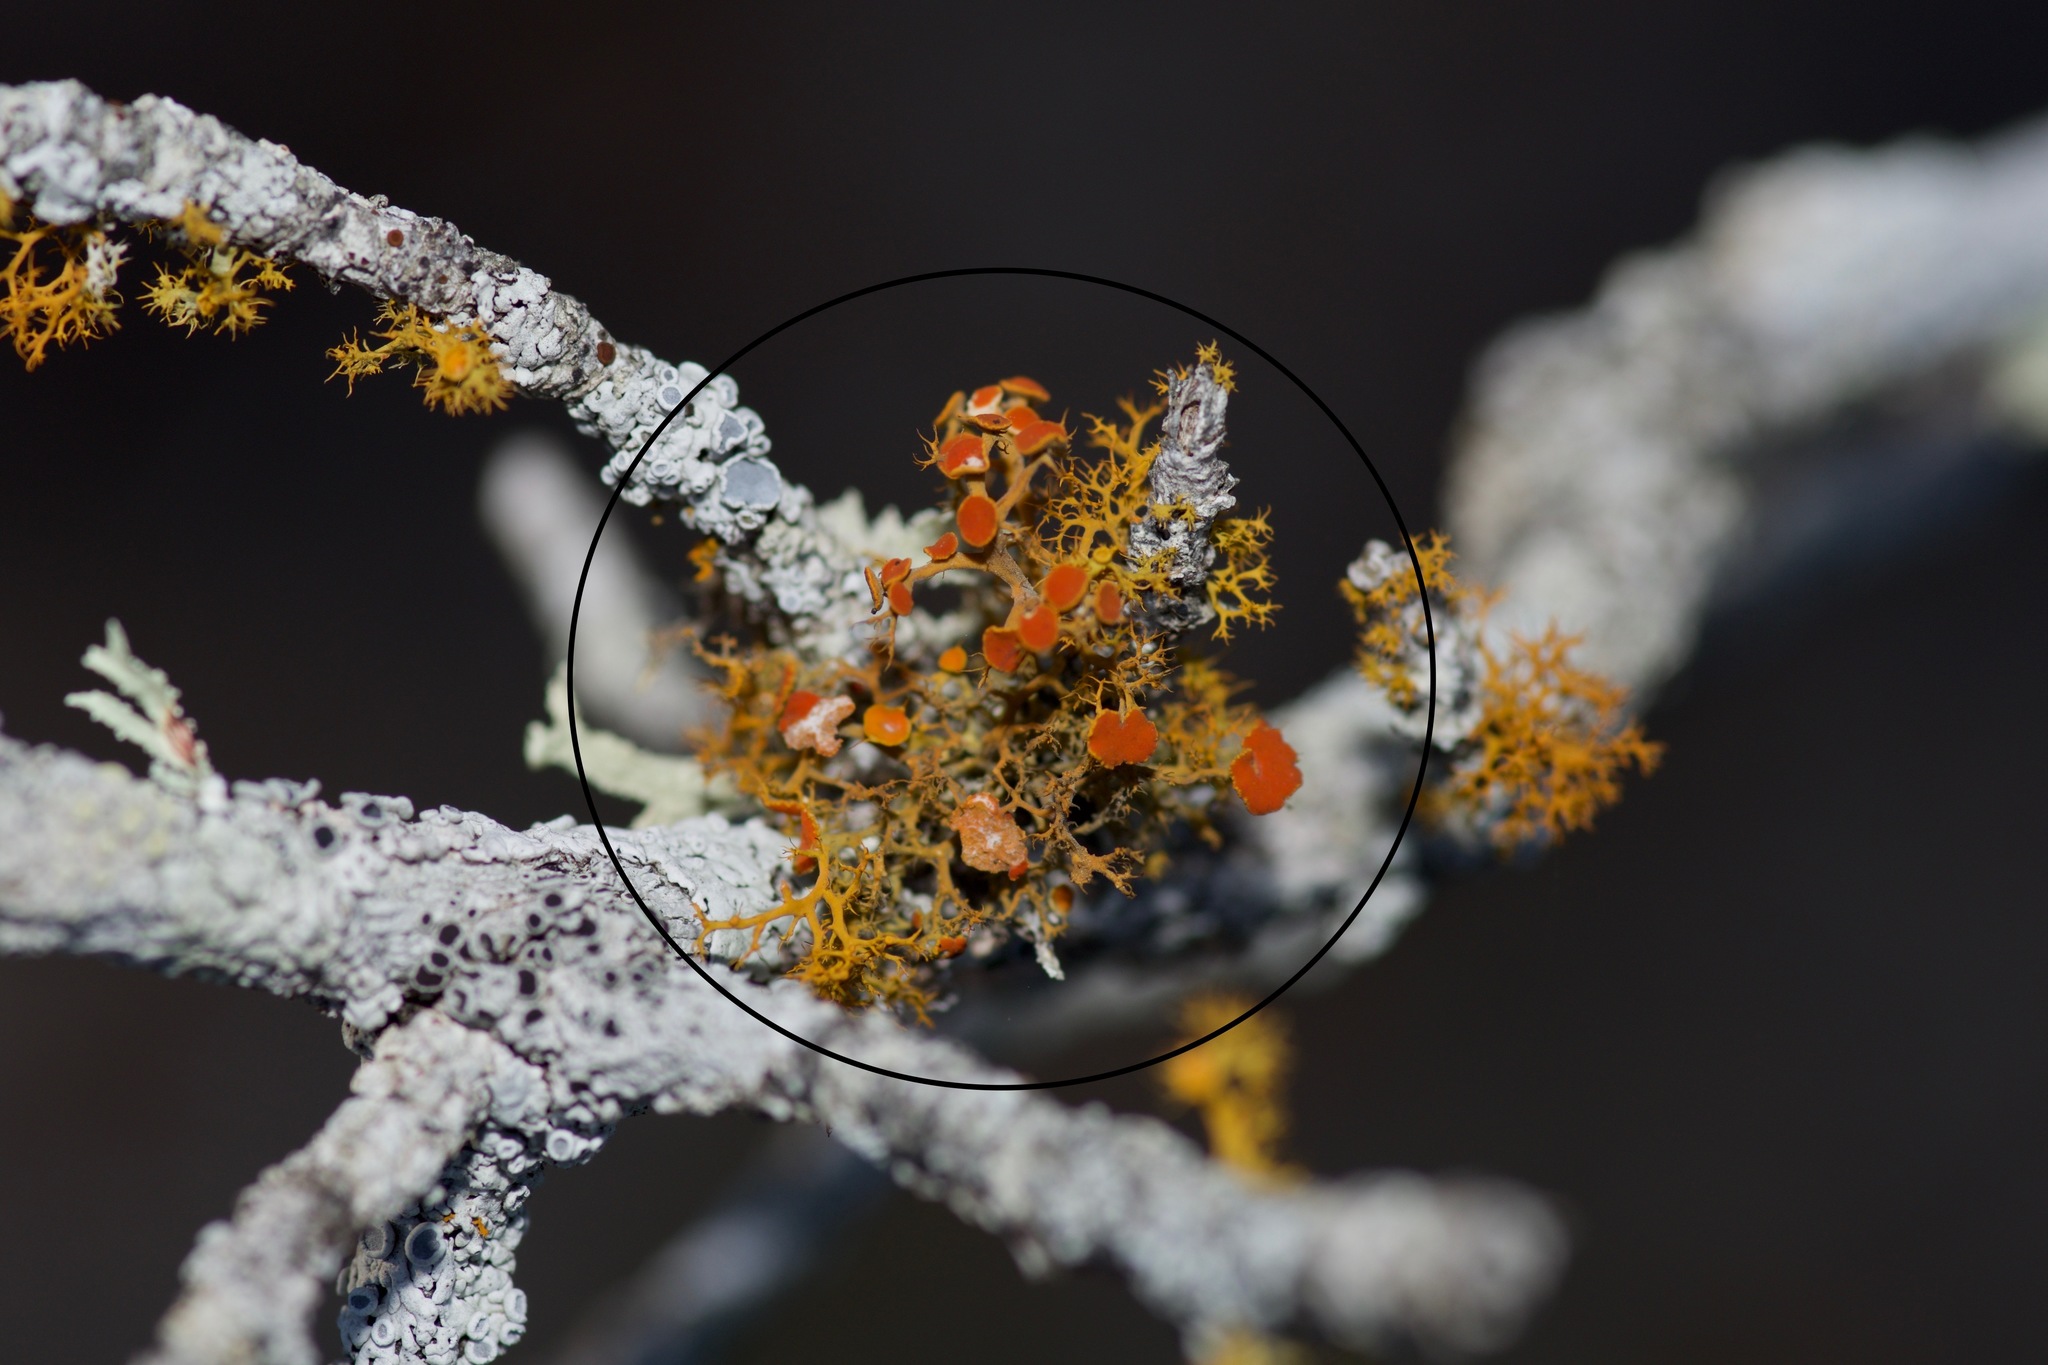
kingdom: Fungi
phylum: Ascomycota
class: Lecanoromycetes
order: Teloschistales
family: Teloschistaceae
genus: Teloschistes
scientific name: Teloschistes exilis
